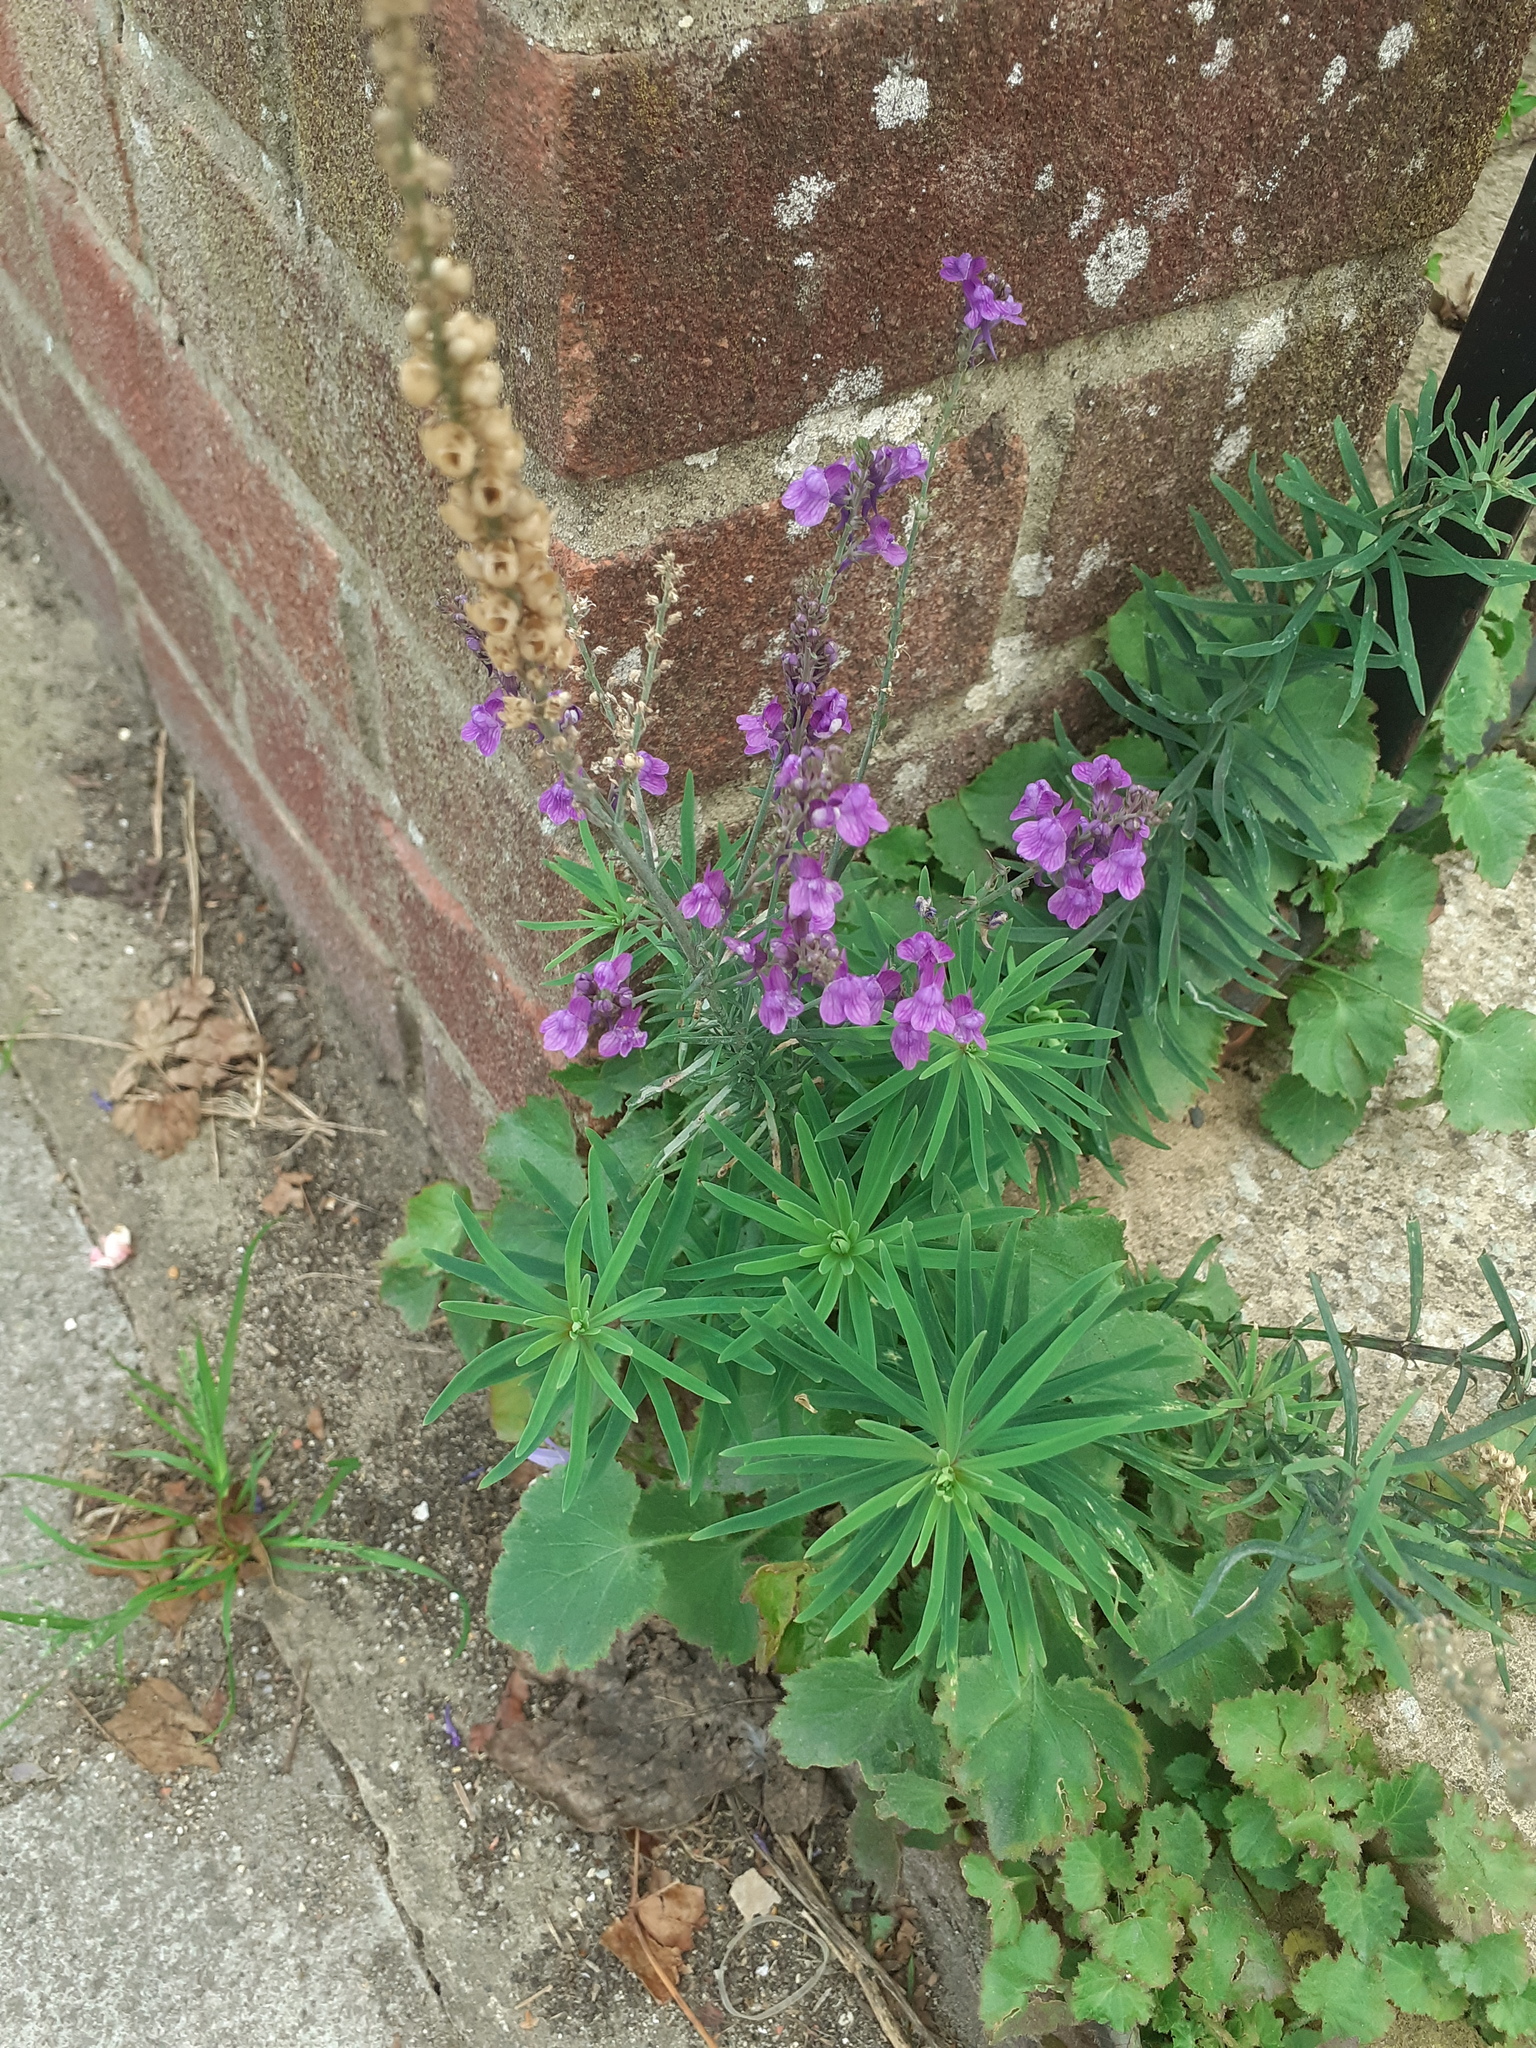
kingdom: Plantae
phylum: Tracheophyta
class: Magnoliopsida
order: Lamiales
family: Plantaginaceae
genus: Linaria
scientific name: Linaria purpurea
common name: Purple toadflax
